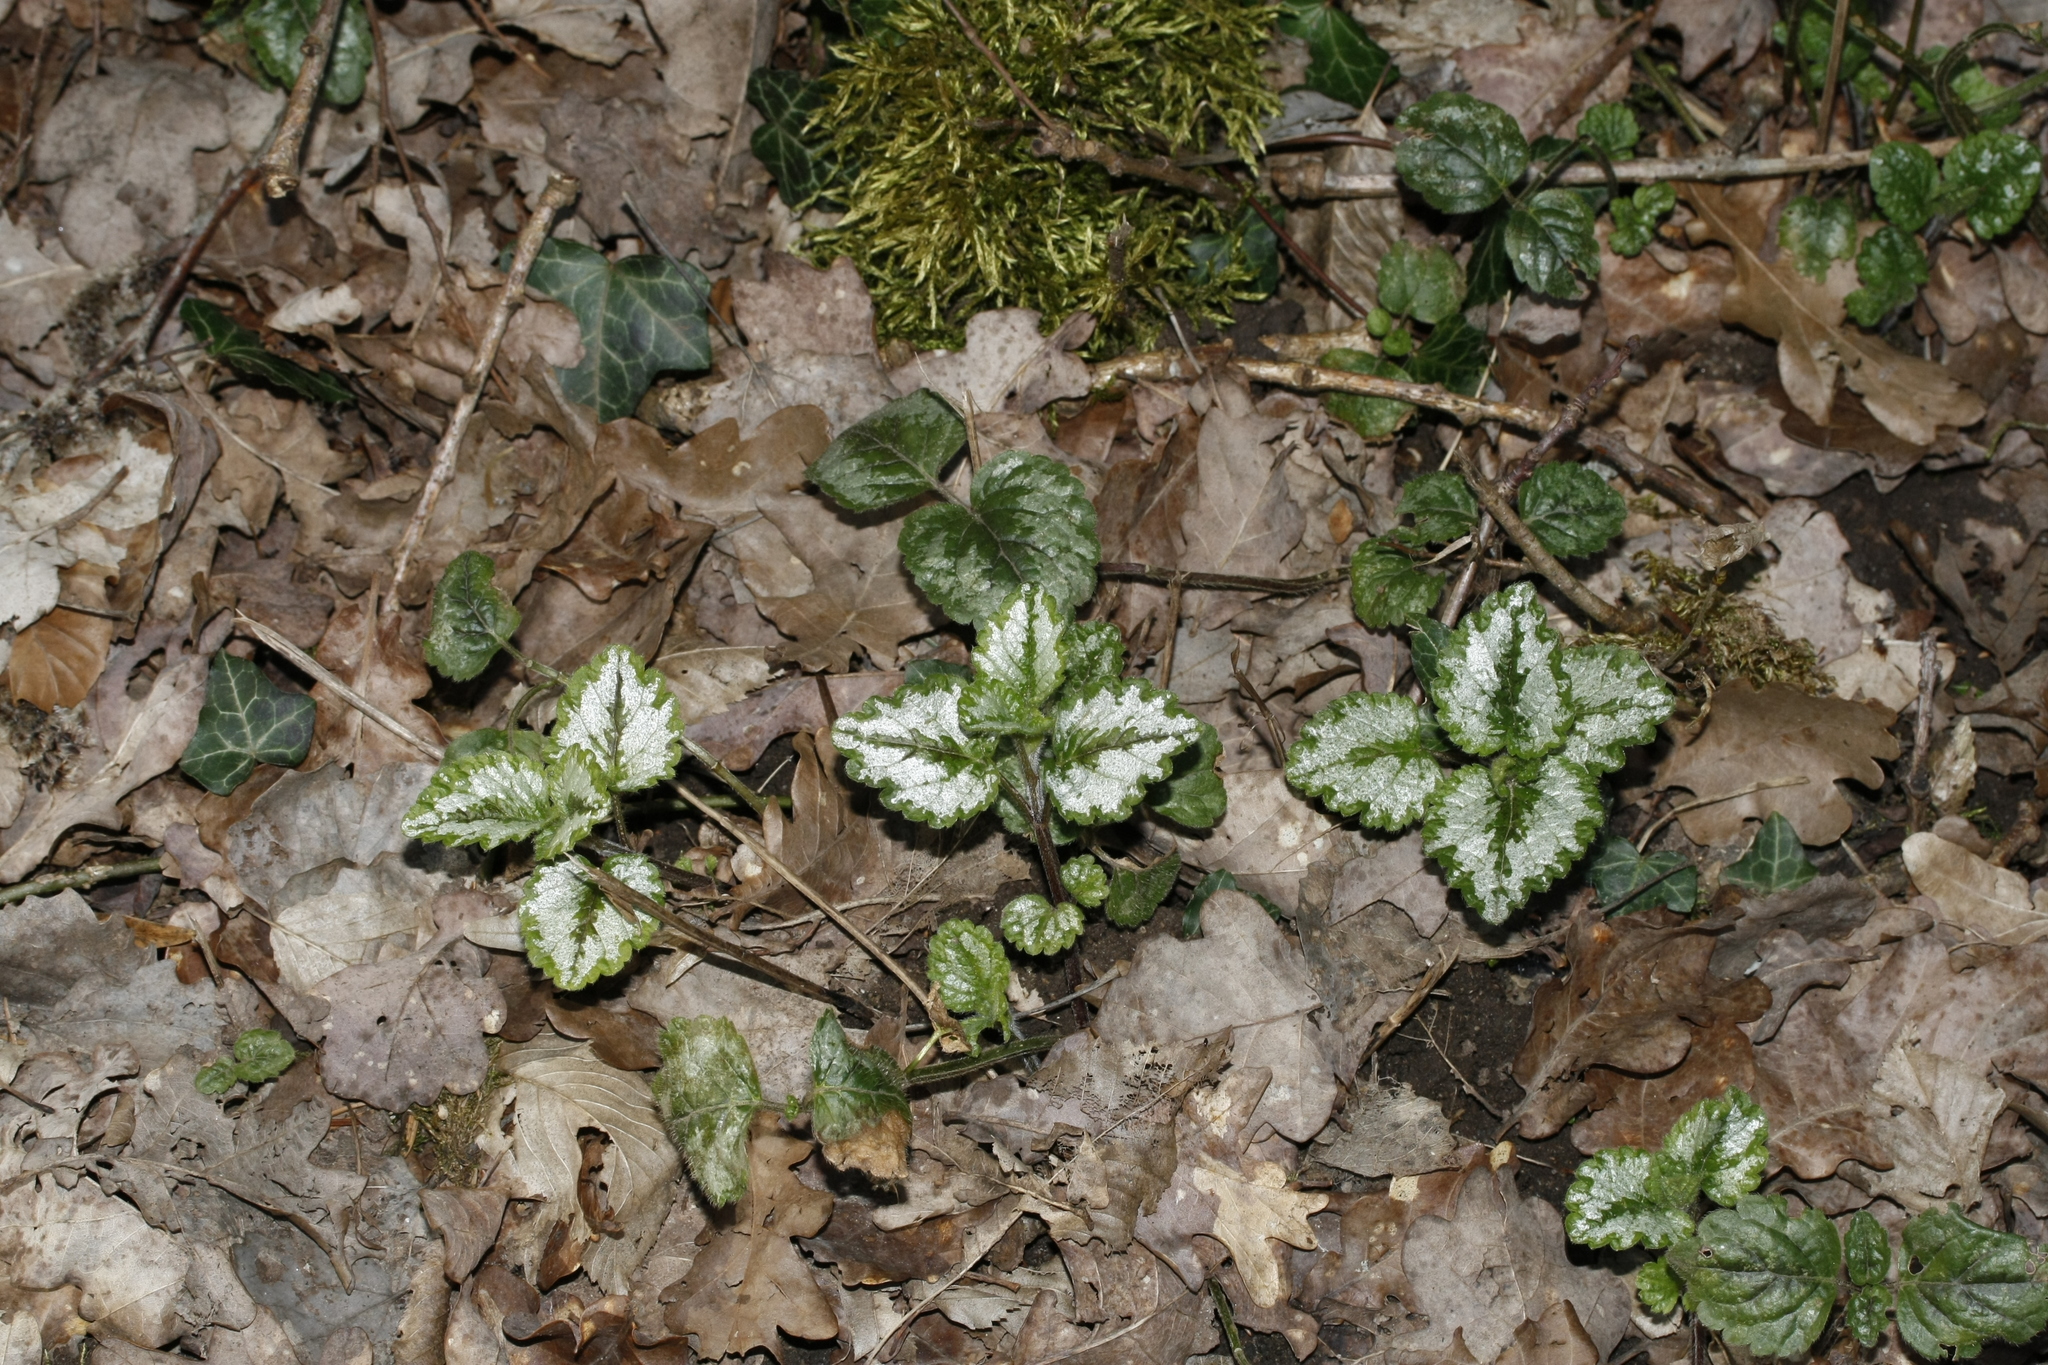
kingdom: Plantae
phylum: Tracheophyta
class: Magnoliopsida
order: Lamiales
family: Lamiaceae
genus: Lamium
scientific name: Lamium galeobdolon
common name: Yellow archangel
